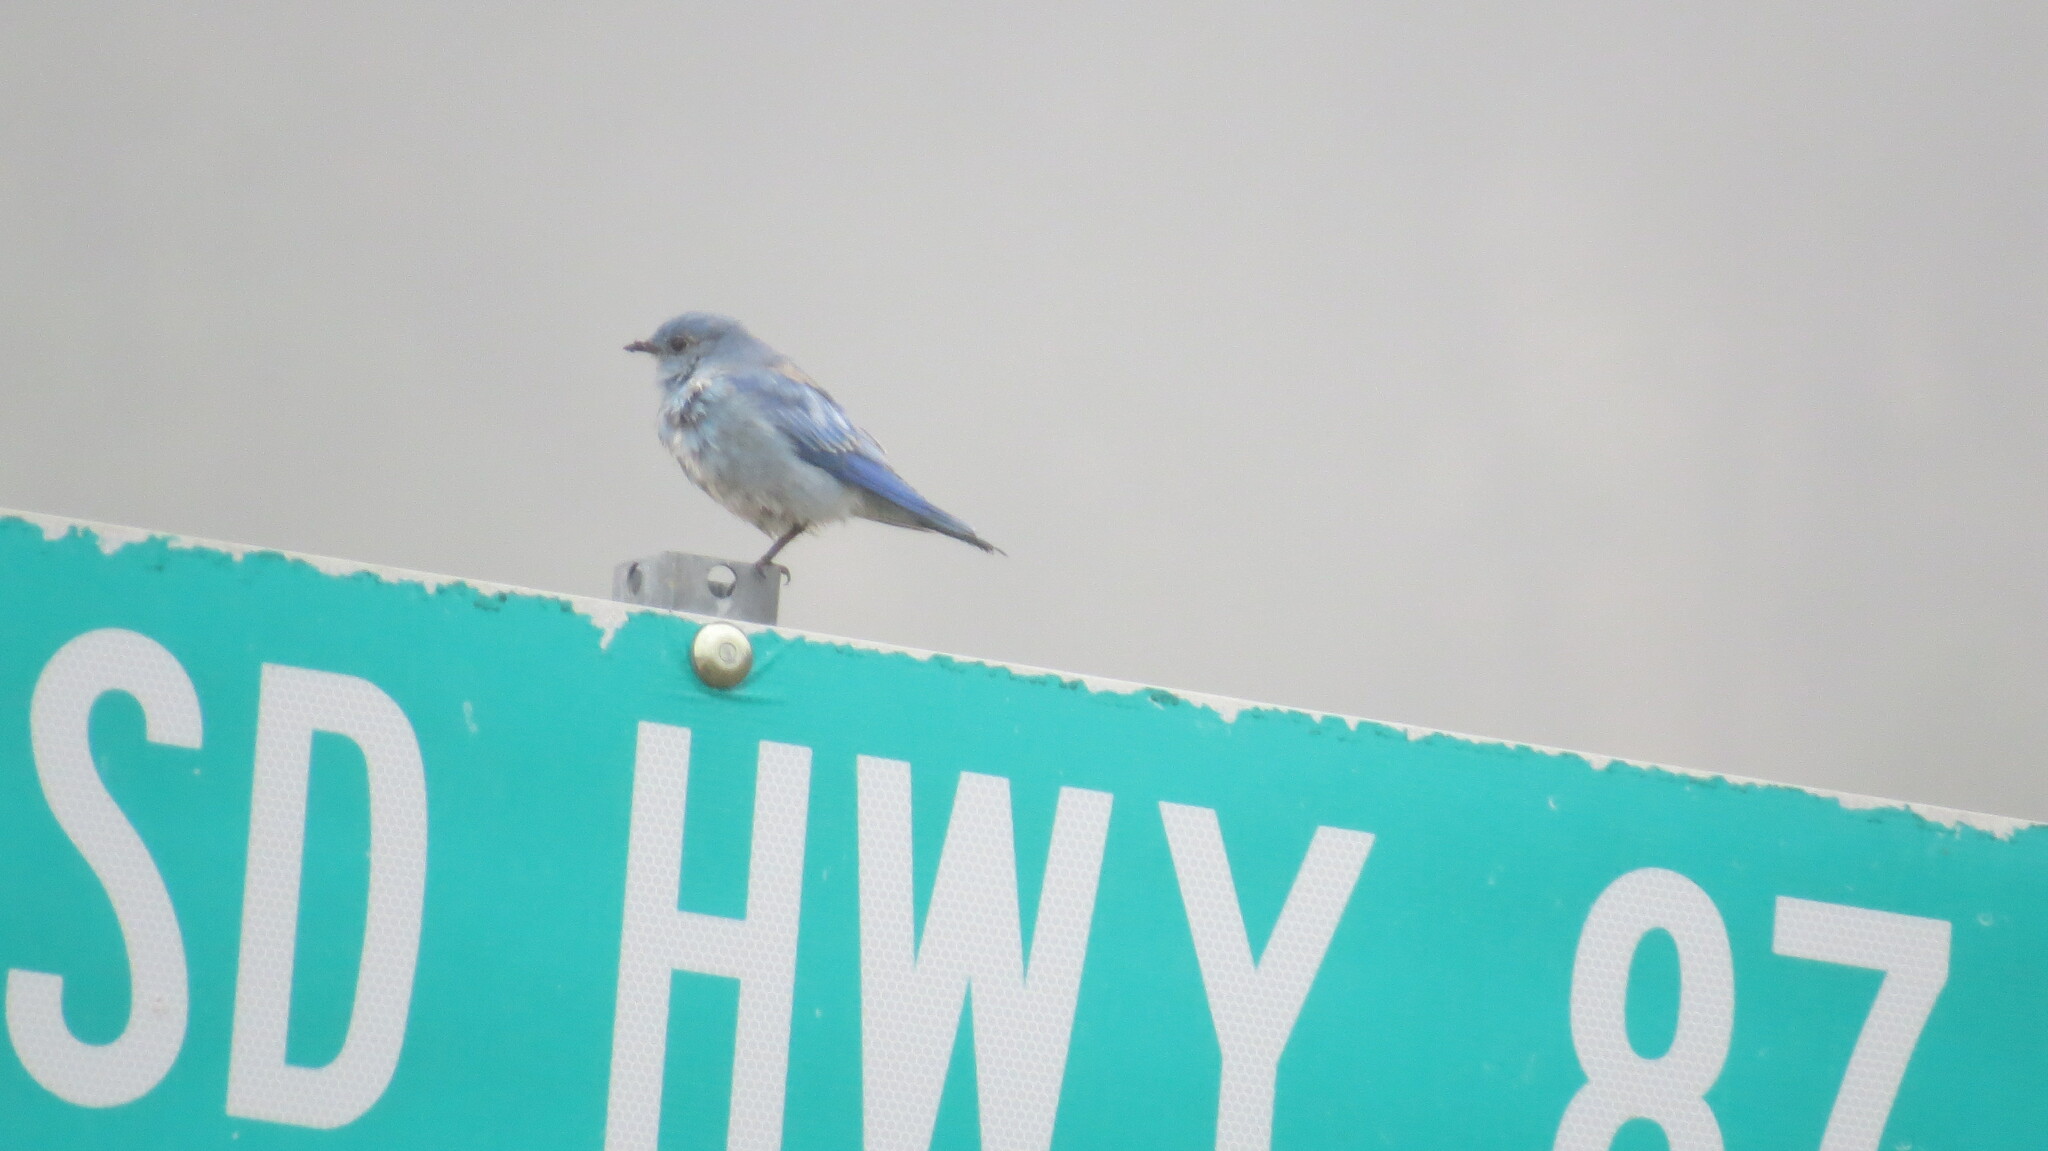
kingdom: Animalia
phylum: Chordata
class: Aves
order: Passeriformes
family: Turdidae
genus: Sialia
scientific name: Sialia currucoides
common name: Mountain bluebird
